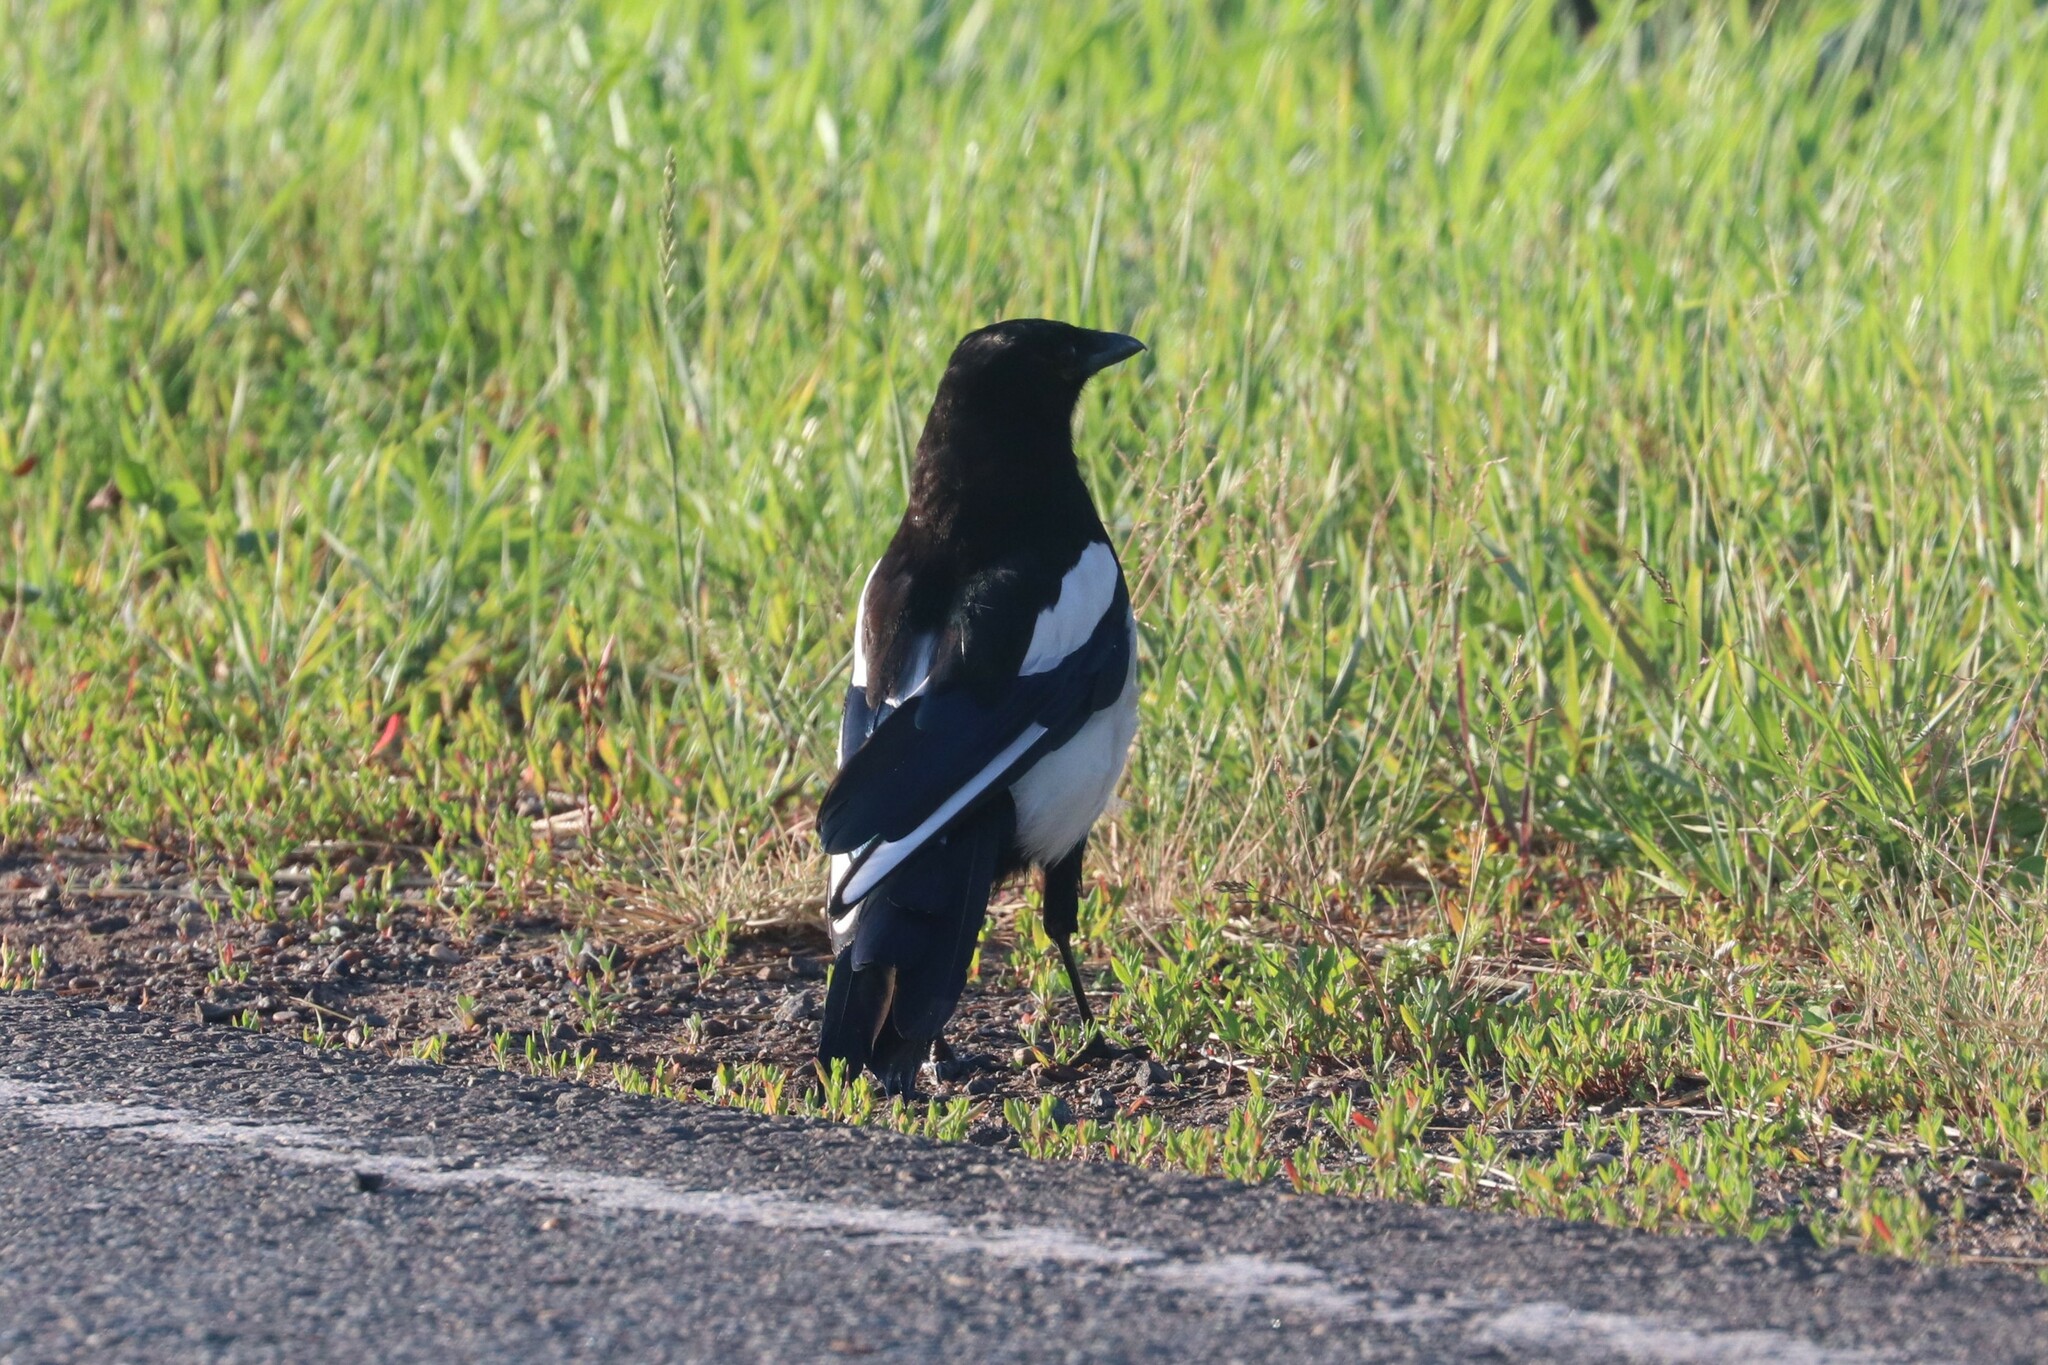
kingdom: Animalia
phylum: Chordata
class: Aves
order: Passeriformes
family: Corvidae
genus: Pica
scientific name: Pica pica
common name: Eurasian magpie
